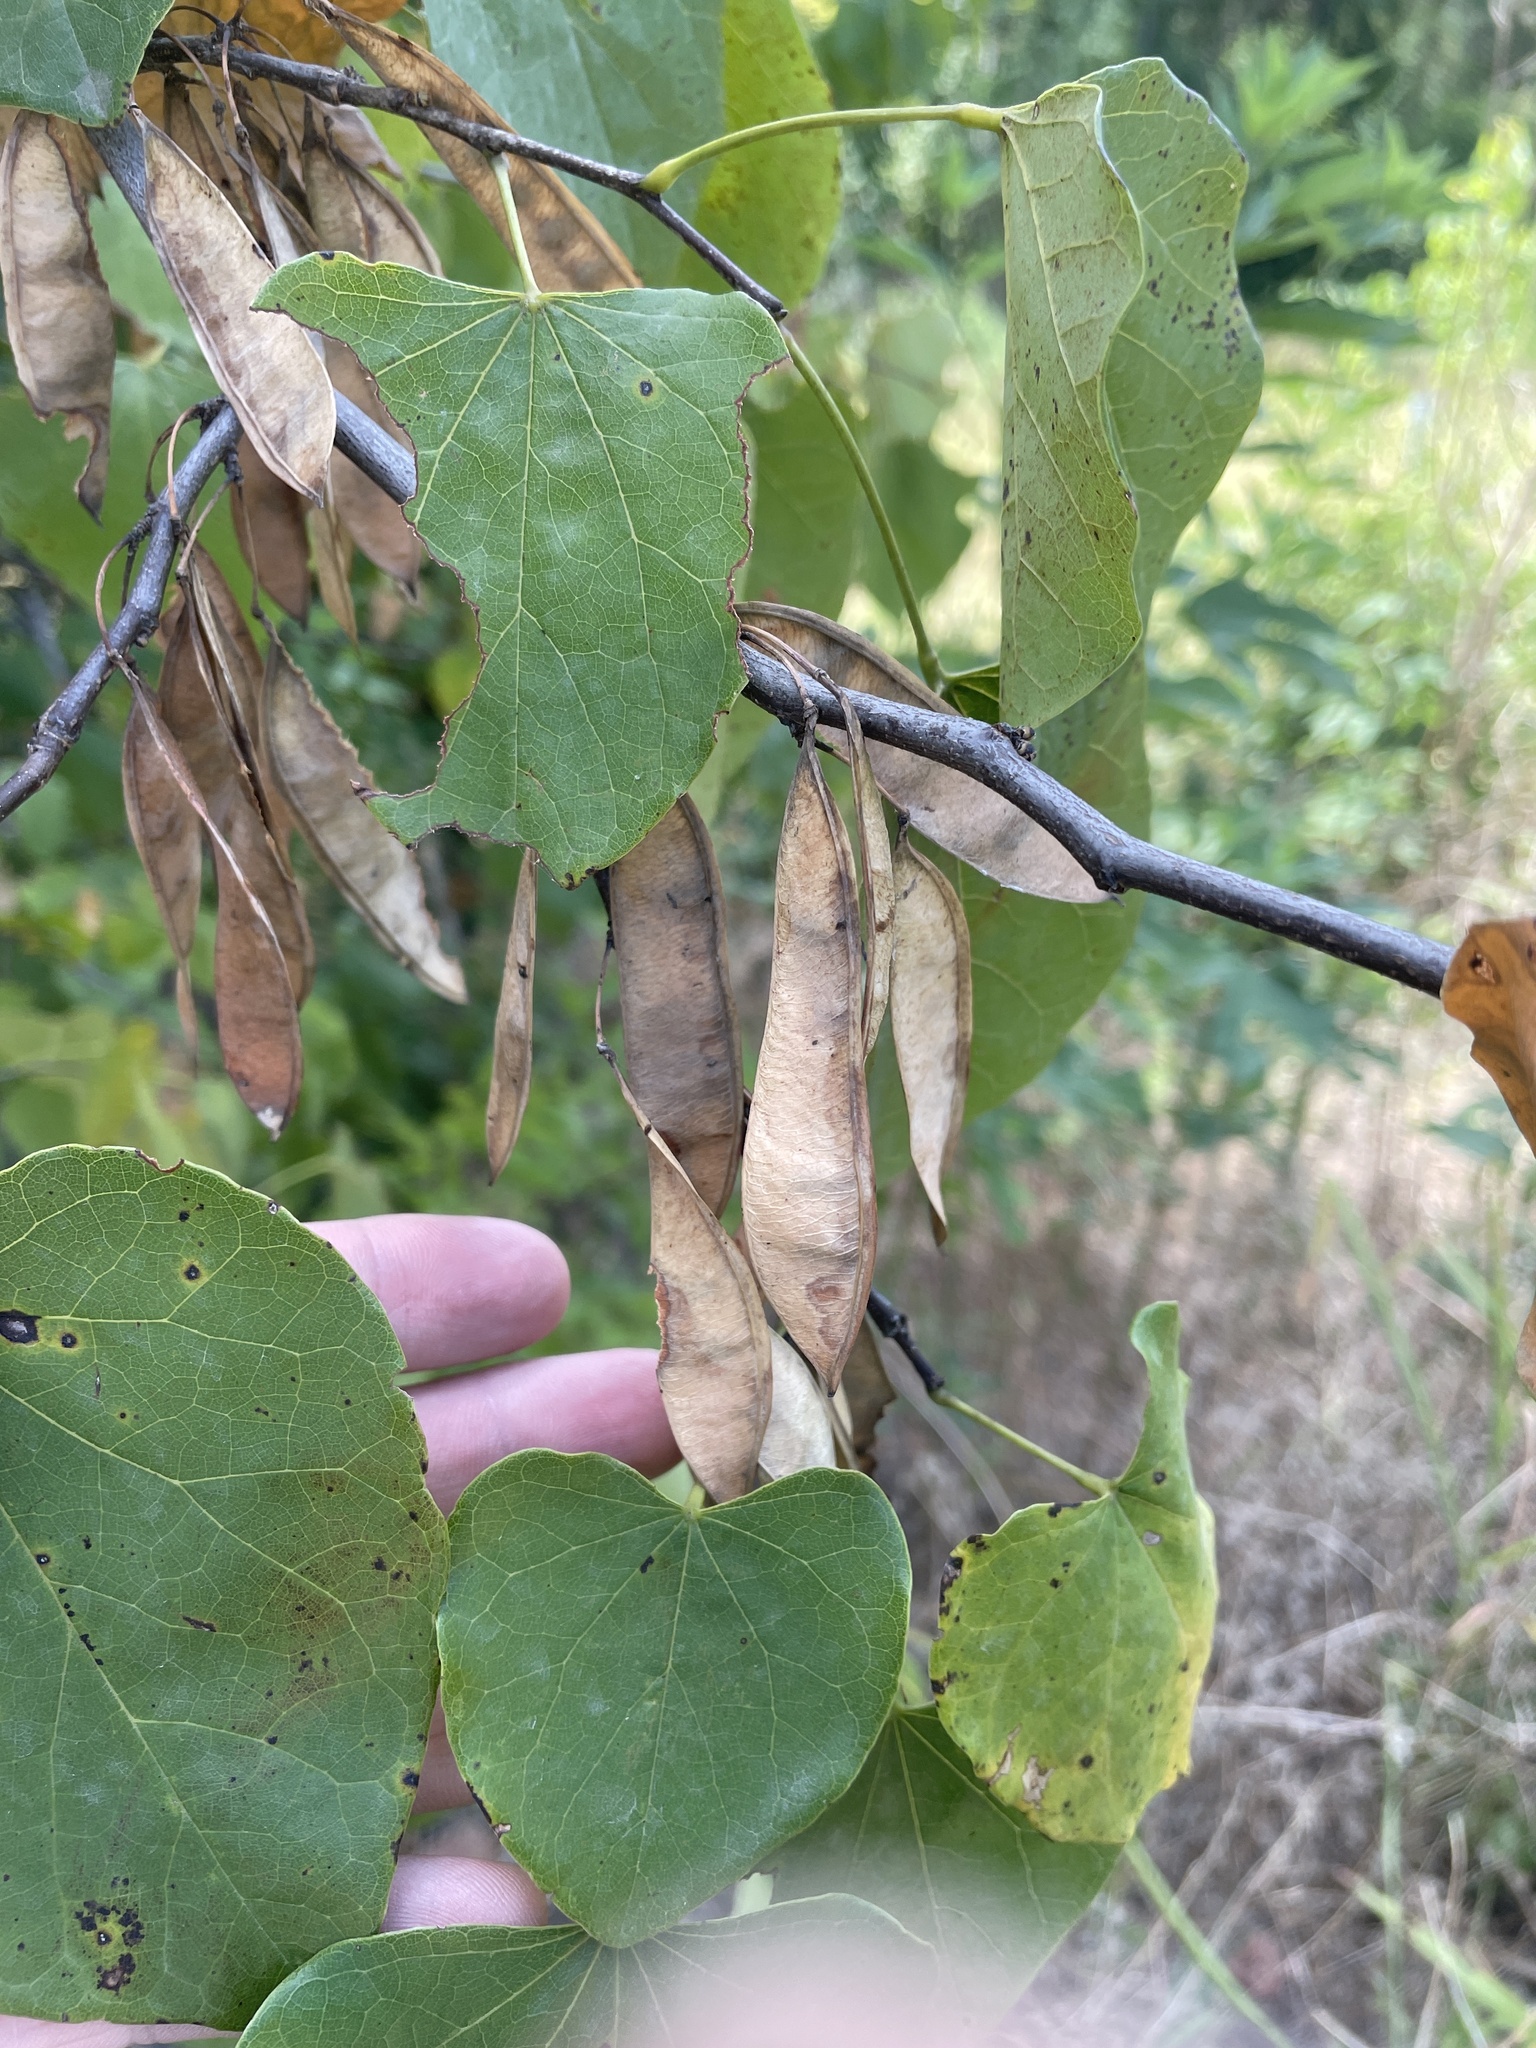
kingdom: Plantae
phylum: Tracheophyta
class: Magnoliopsida
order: Fabales
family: Fabaceae
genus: Cercis
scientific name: Cercis canadensis
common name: Eastern redbud
